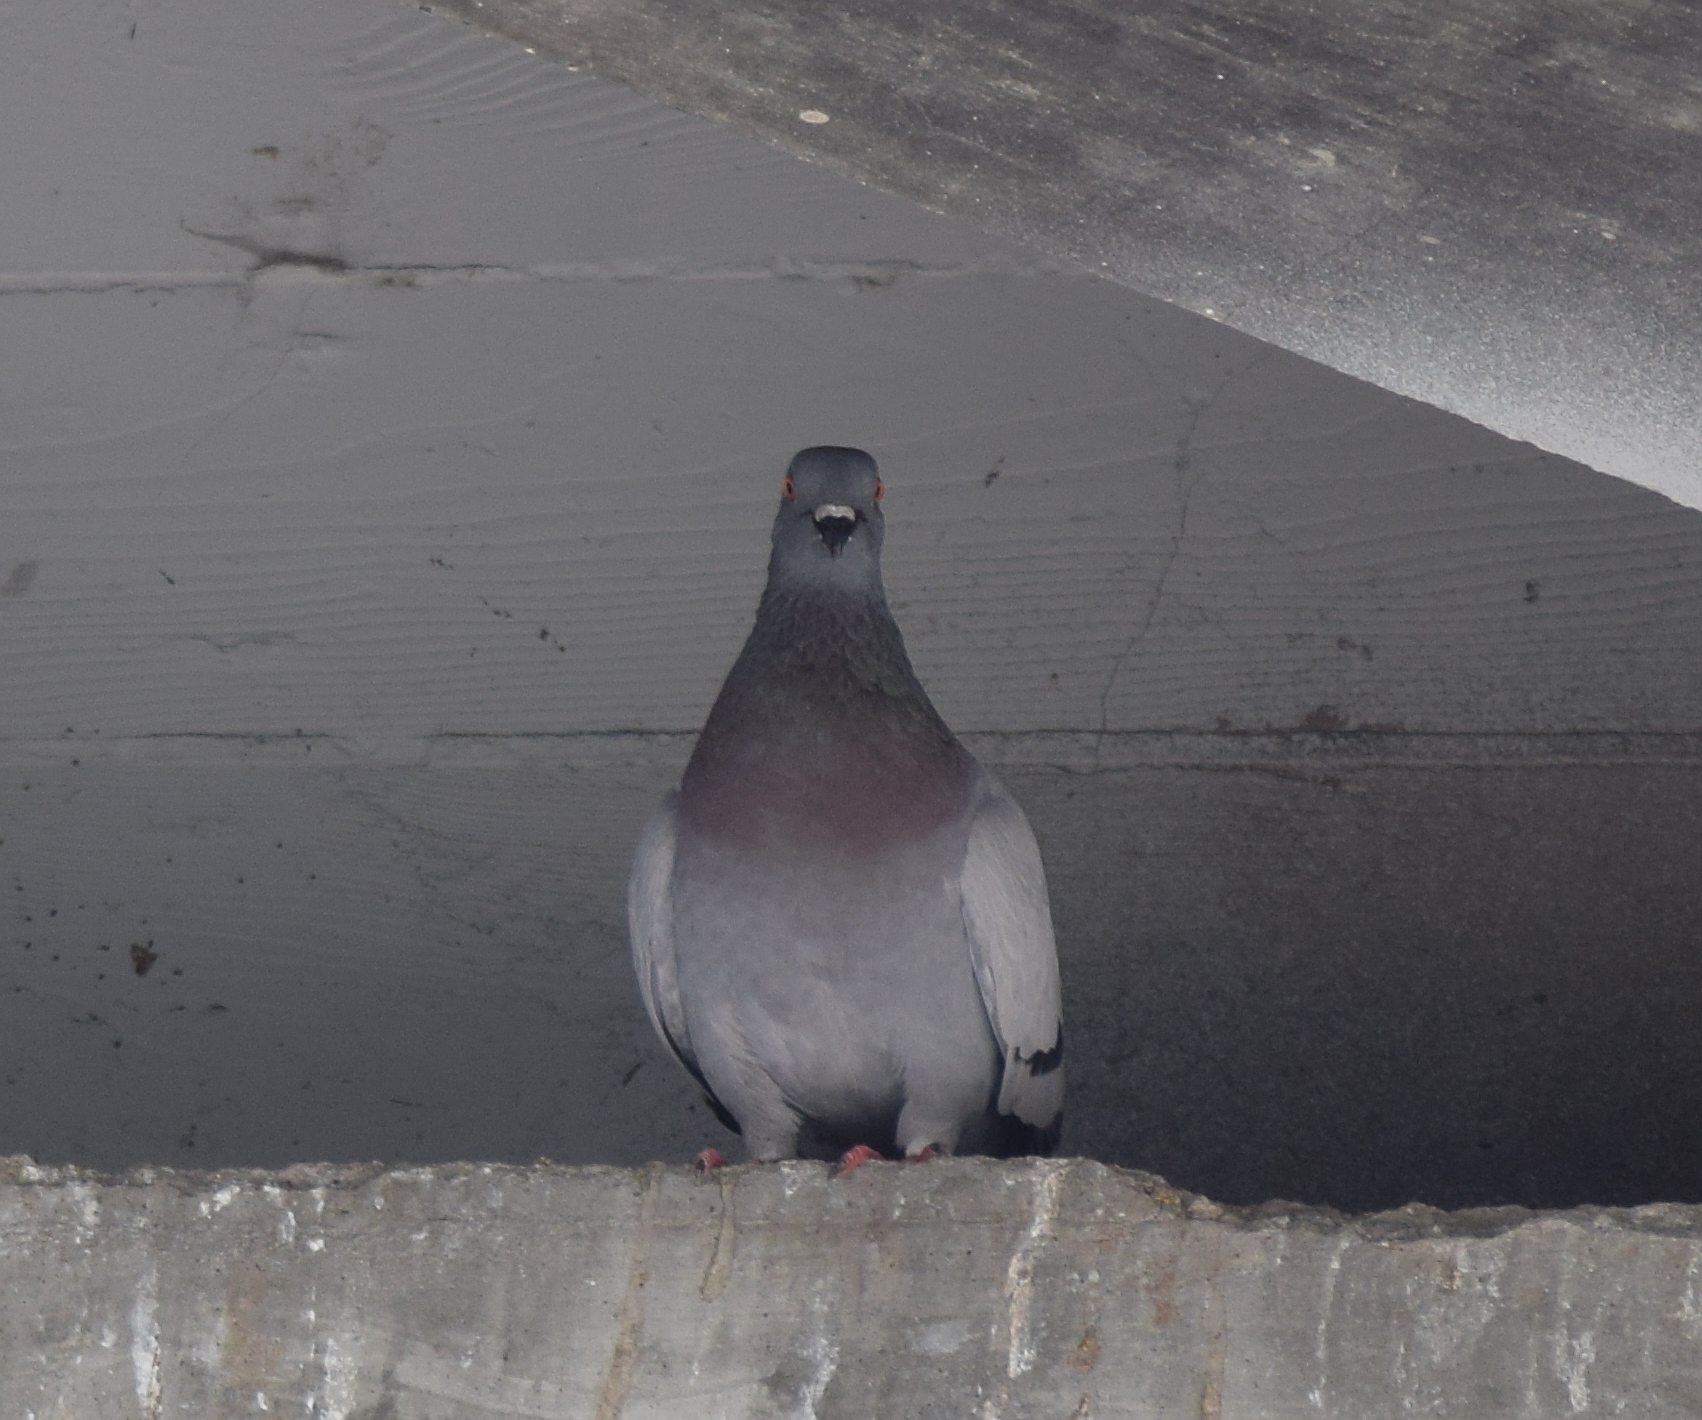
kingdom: Animalia
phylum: Chordata
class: Aves
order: Columbiformes
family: Columbidae
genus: Columba
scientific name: Columba livia
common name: Rock pigeon
